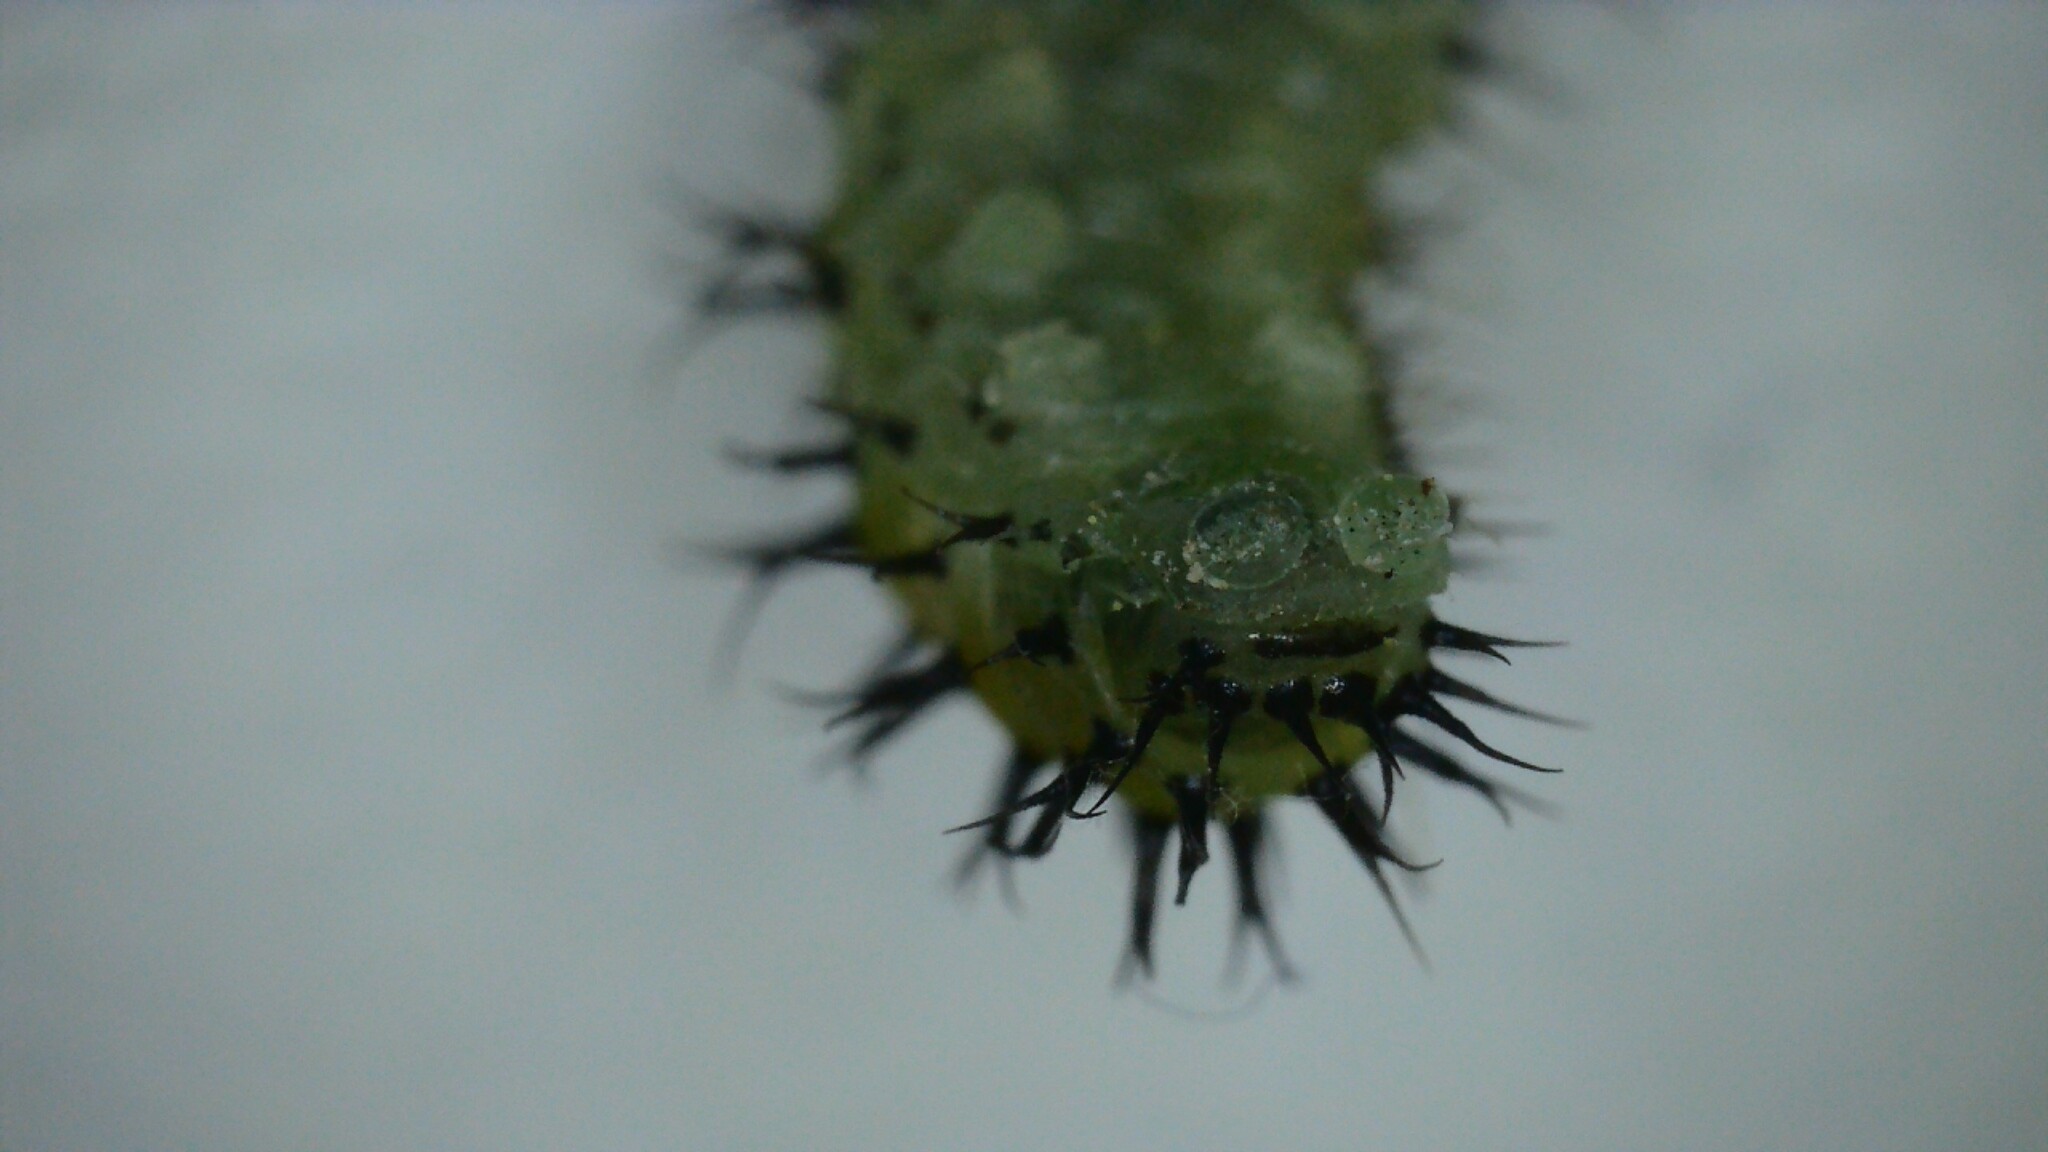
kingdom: Animalia
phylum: Arthropoda
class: Insecta
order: Hymenoptera
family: Tenthredinidae
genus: Periclista
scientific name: Periclista lineolata
